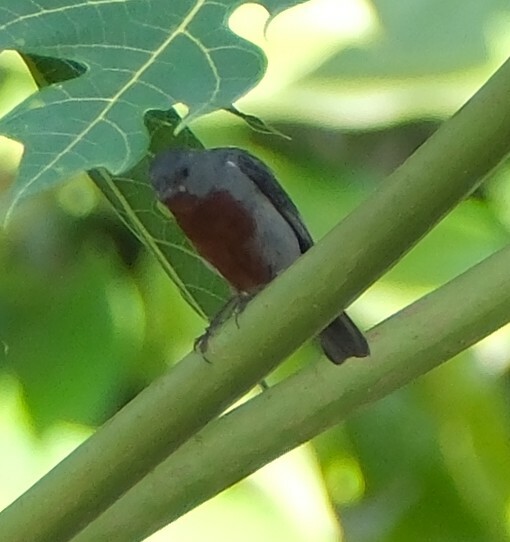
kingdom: Animalia
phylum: Chordata
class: Aves
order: Passeriformes
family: Thraupidae
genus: Sporophila
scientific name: Sporophila castaneiventris
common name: Chestnut-bellied seedeater
